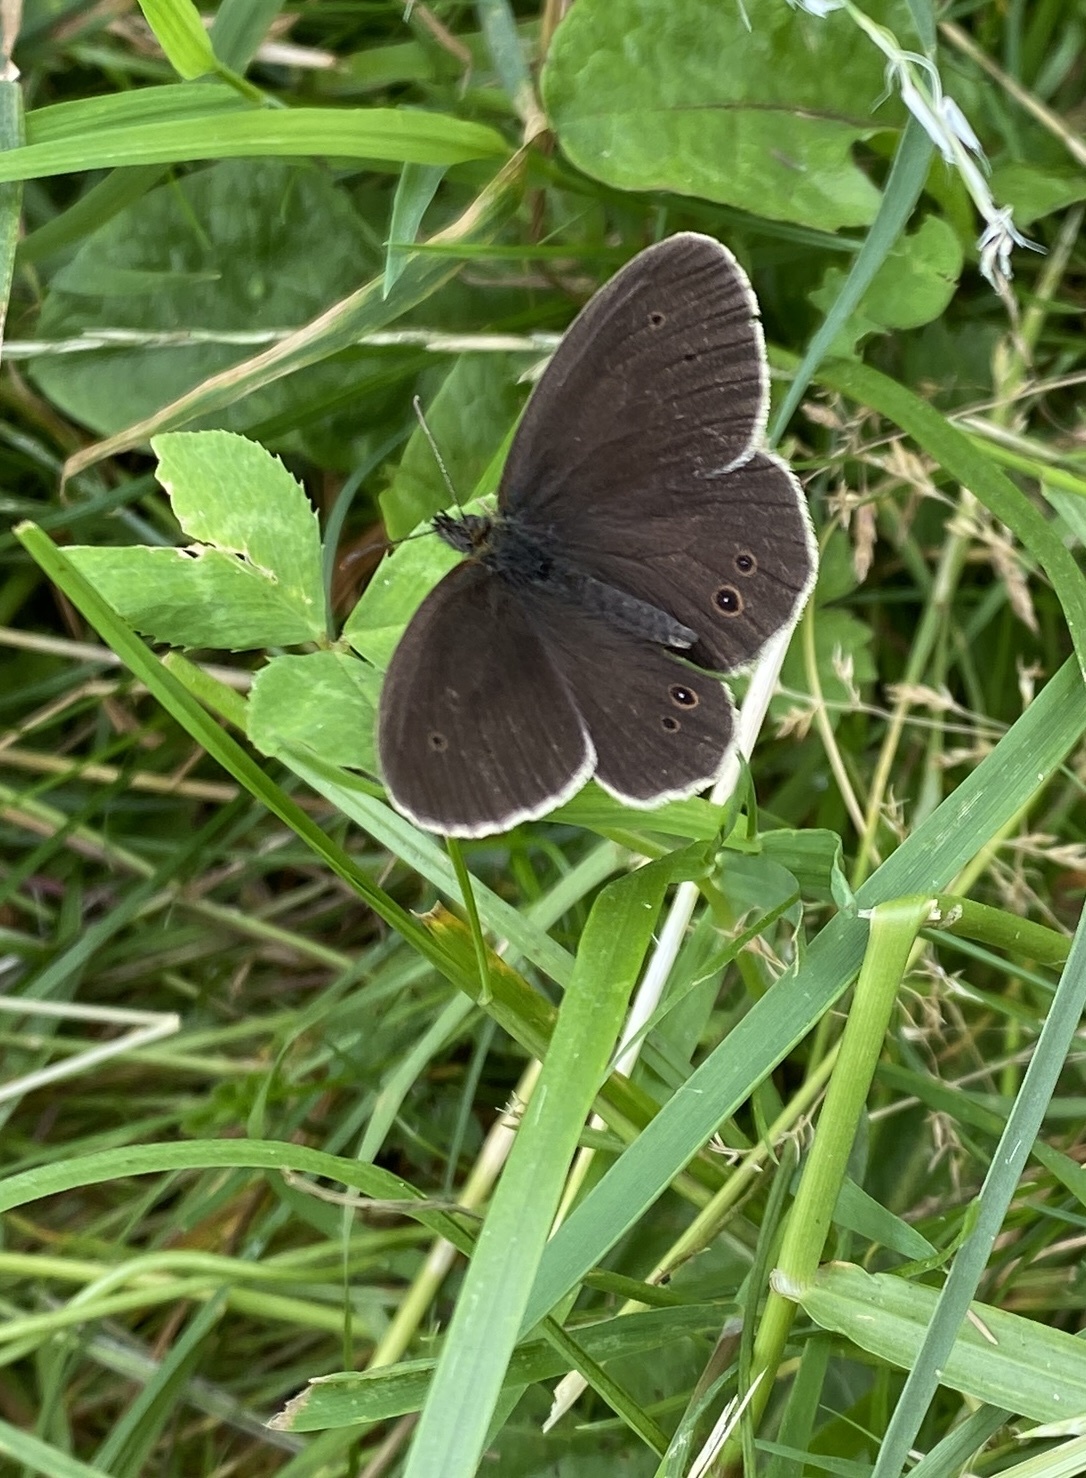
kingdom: Animalia
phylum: Arthropoda
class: Insecta
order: Lepidoptera
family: Nymphalidae
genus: Aphantopus
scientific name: Aphantopus hyperantus
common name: Ringlet
